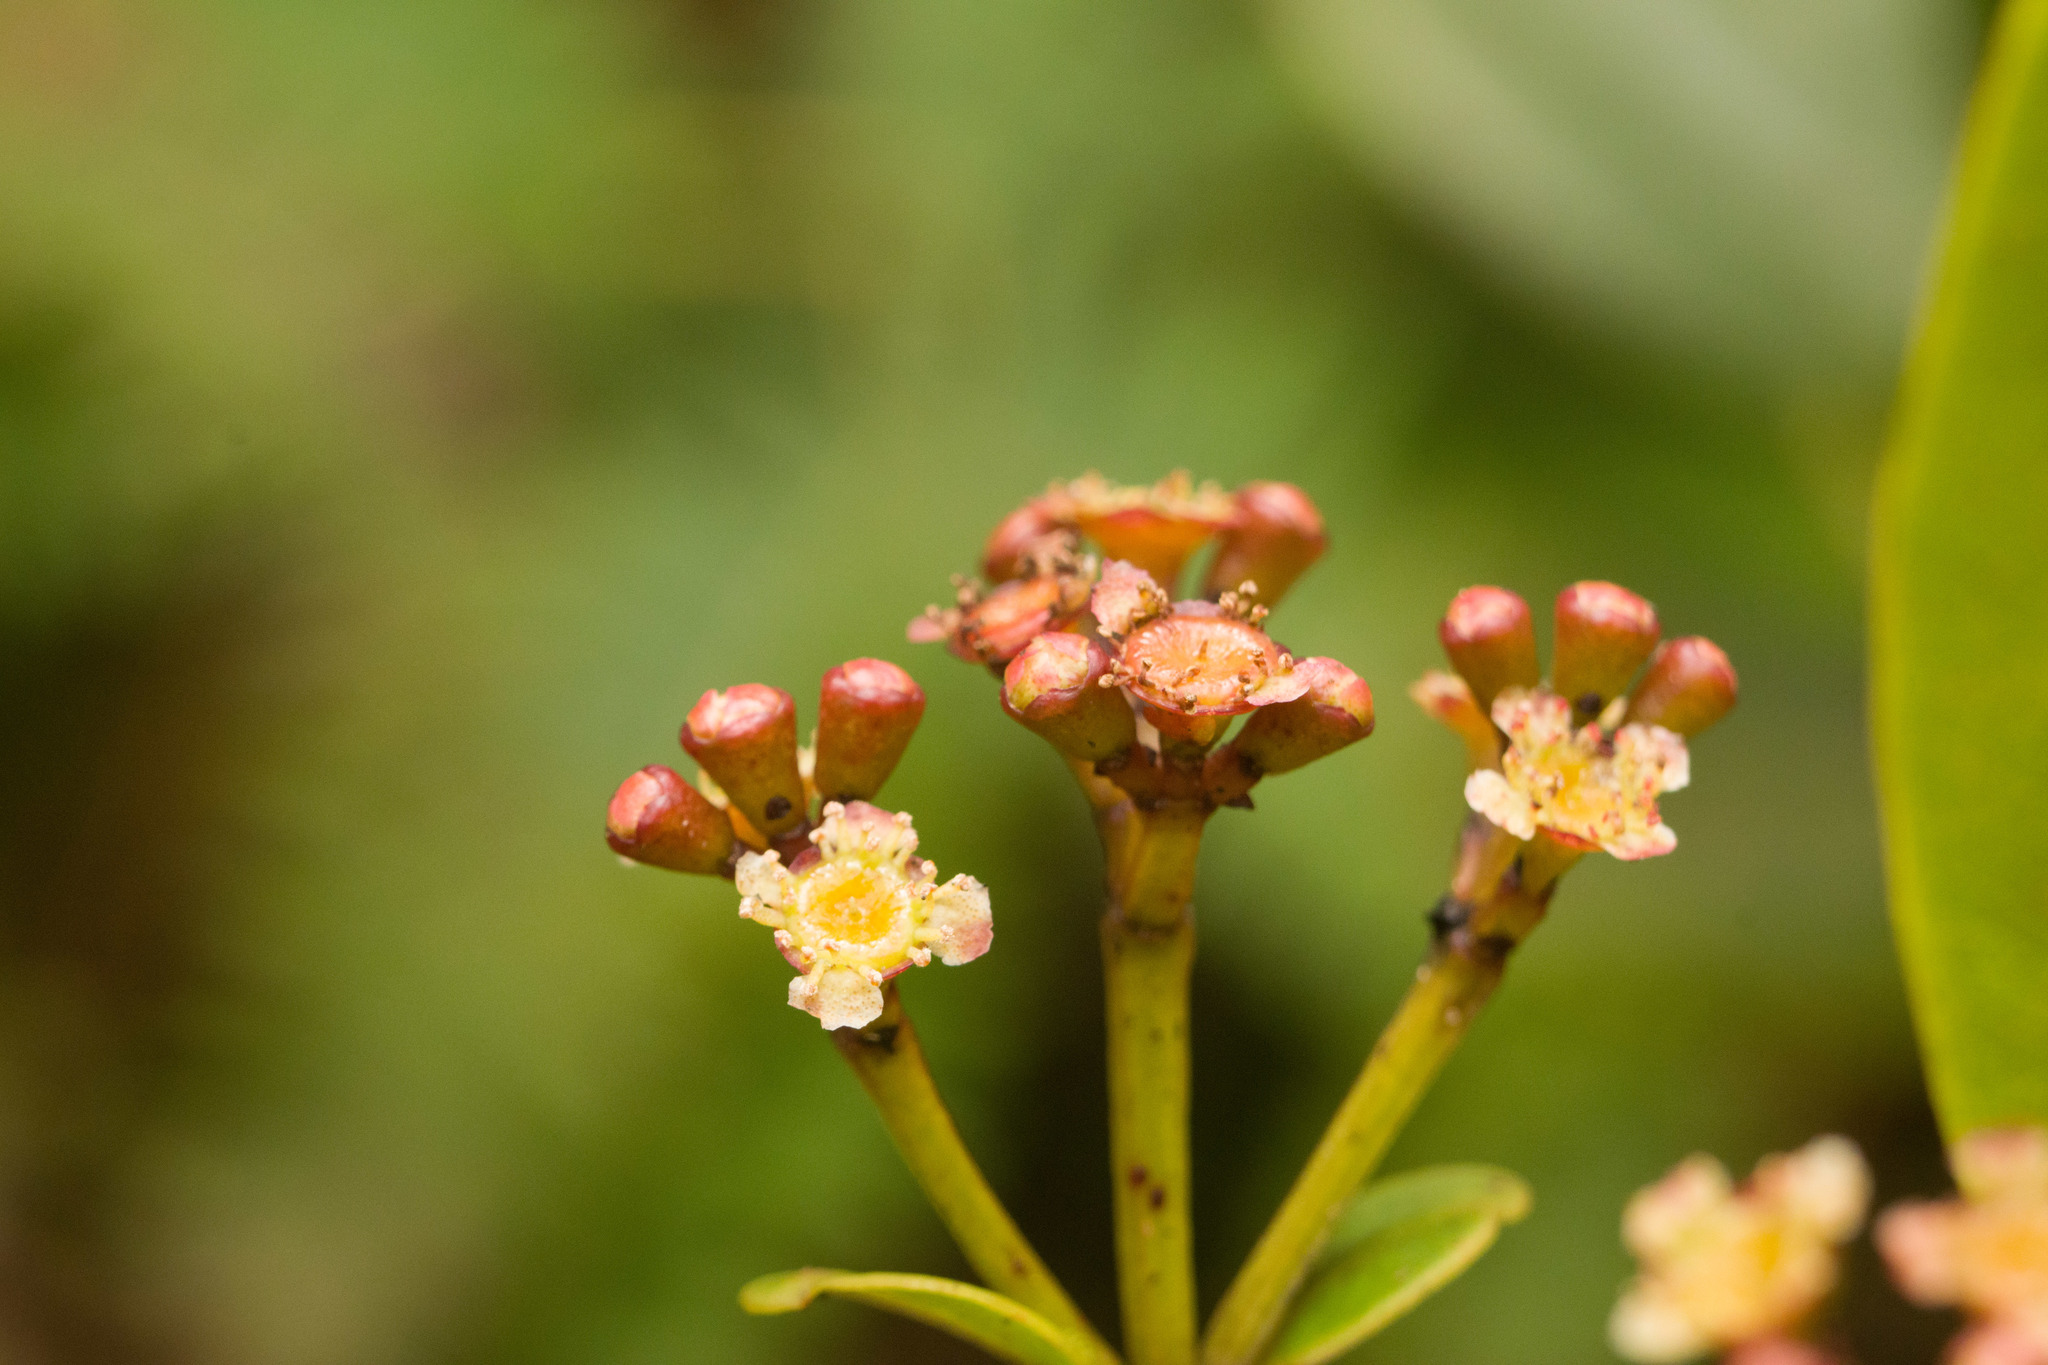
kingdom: Plantae
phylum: Tracheophyta
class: Magnoliopsida
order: Myrtales
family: Myrtaceae
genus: Syzygium
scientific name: Syzygium sandwicense
